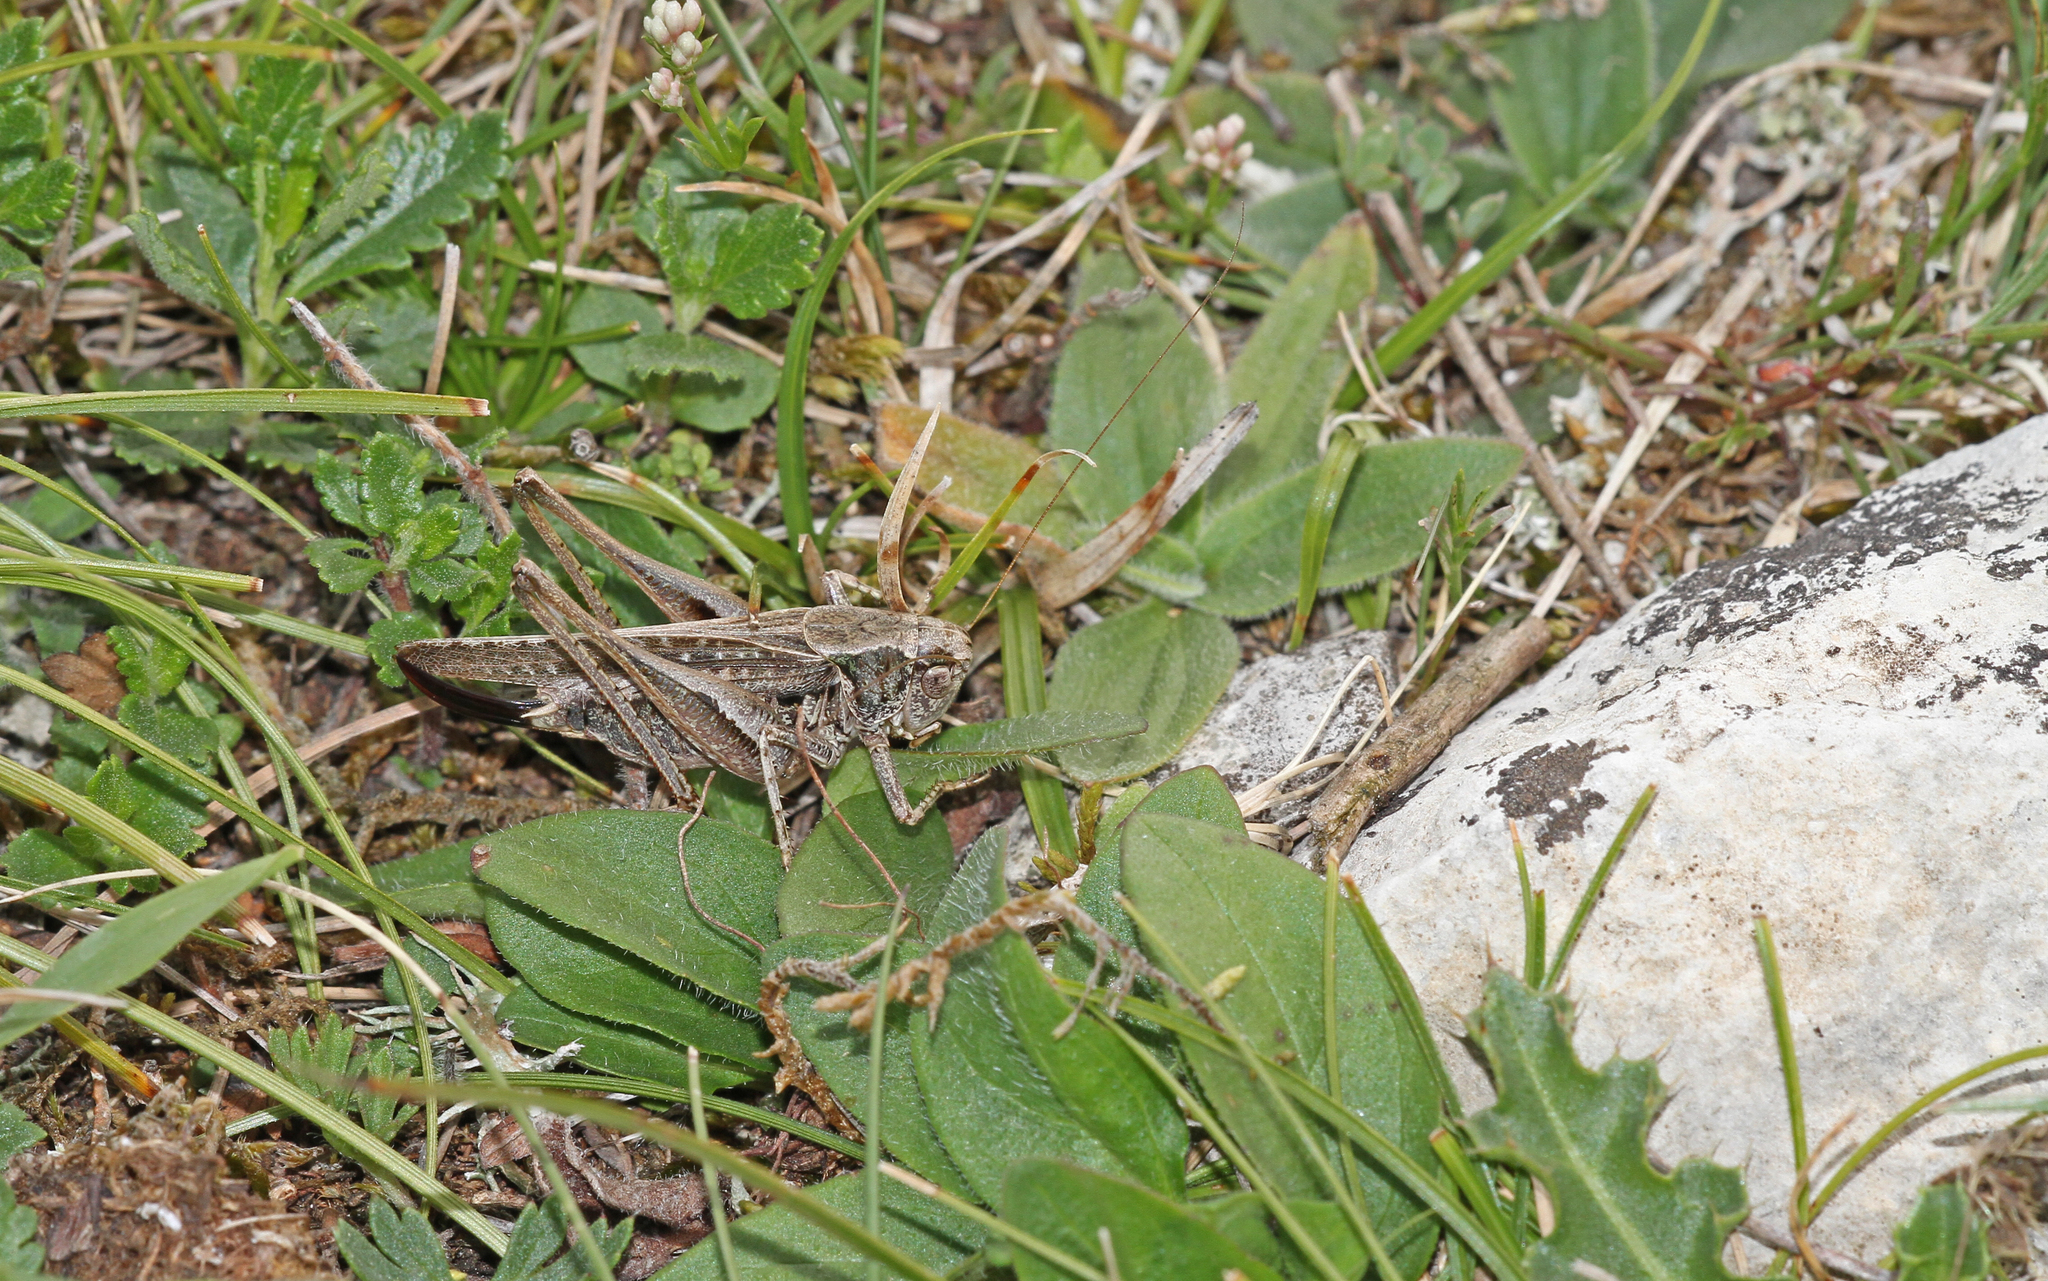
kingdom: Animalia
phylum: Arthropoda
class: Insecta
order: Orthoptera
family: Tettigoniidae
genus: Platycleis
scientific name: Platycleis albopunctata
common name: Grey bush-cricket
